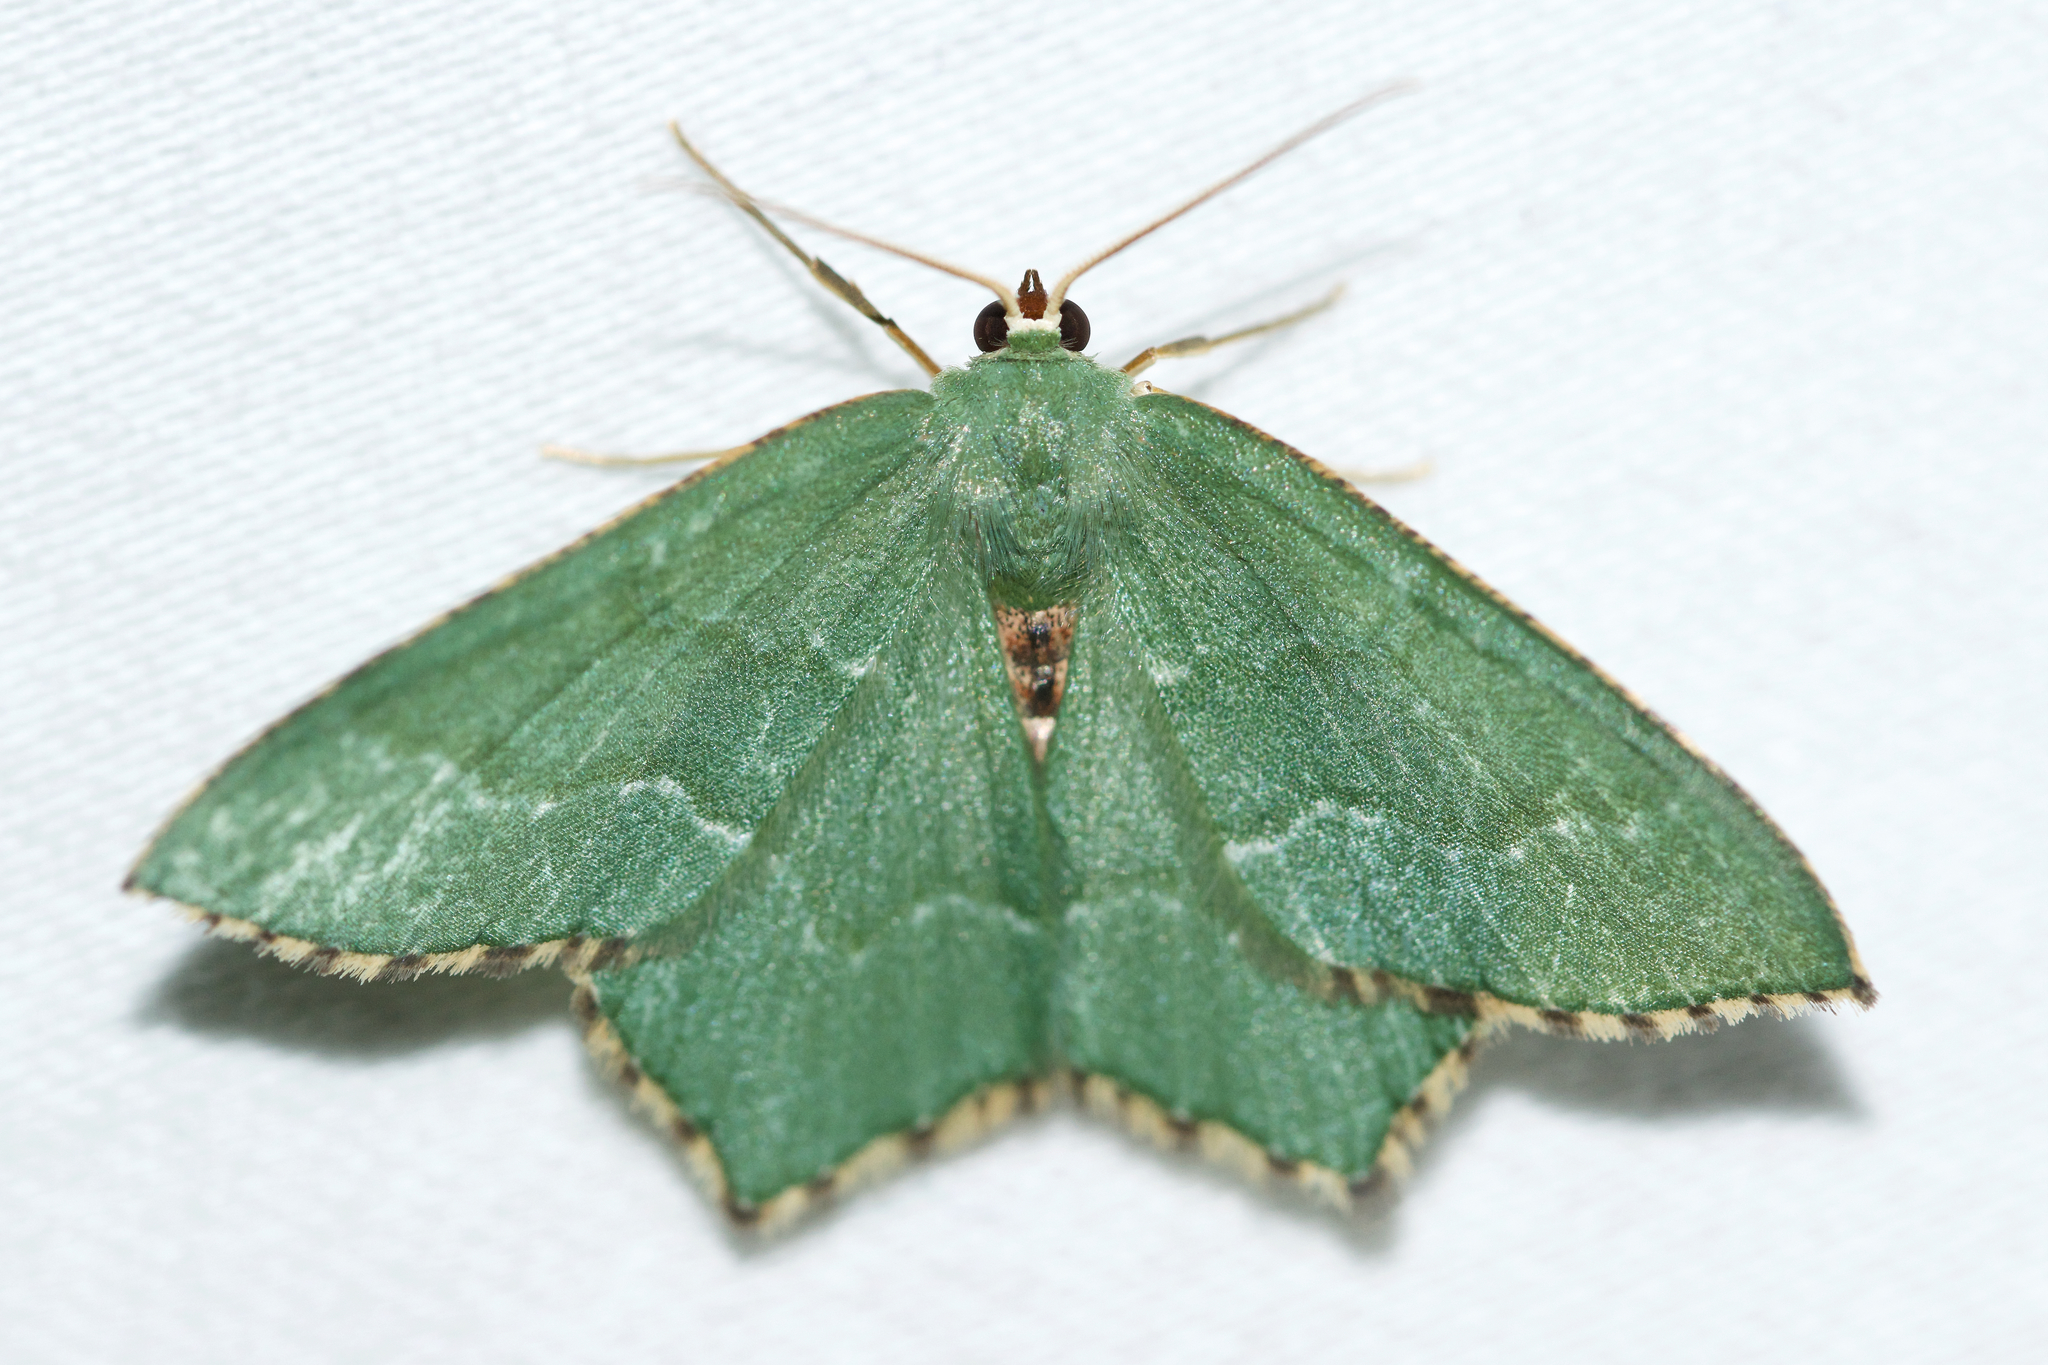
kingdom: Animalia
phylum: Arthropoda
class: Insecta
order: Lepidoptera
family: Geometridae
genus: Hemithea
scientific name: Hemithea aestivaria
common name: Common emerald
